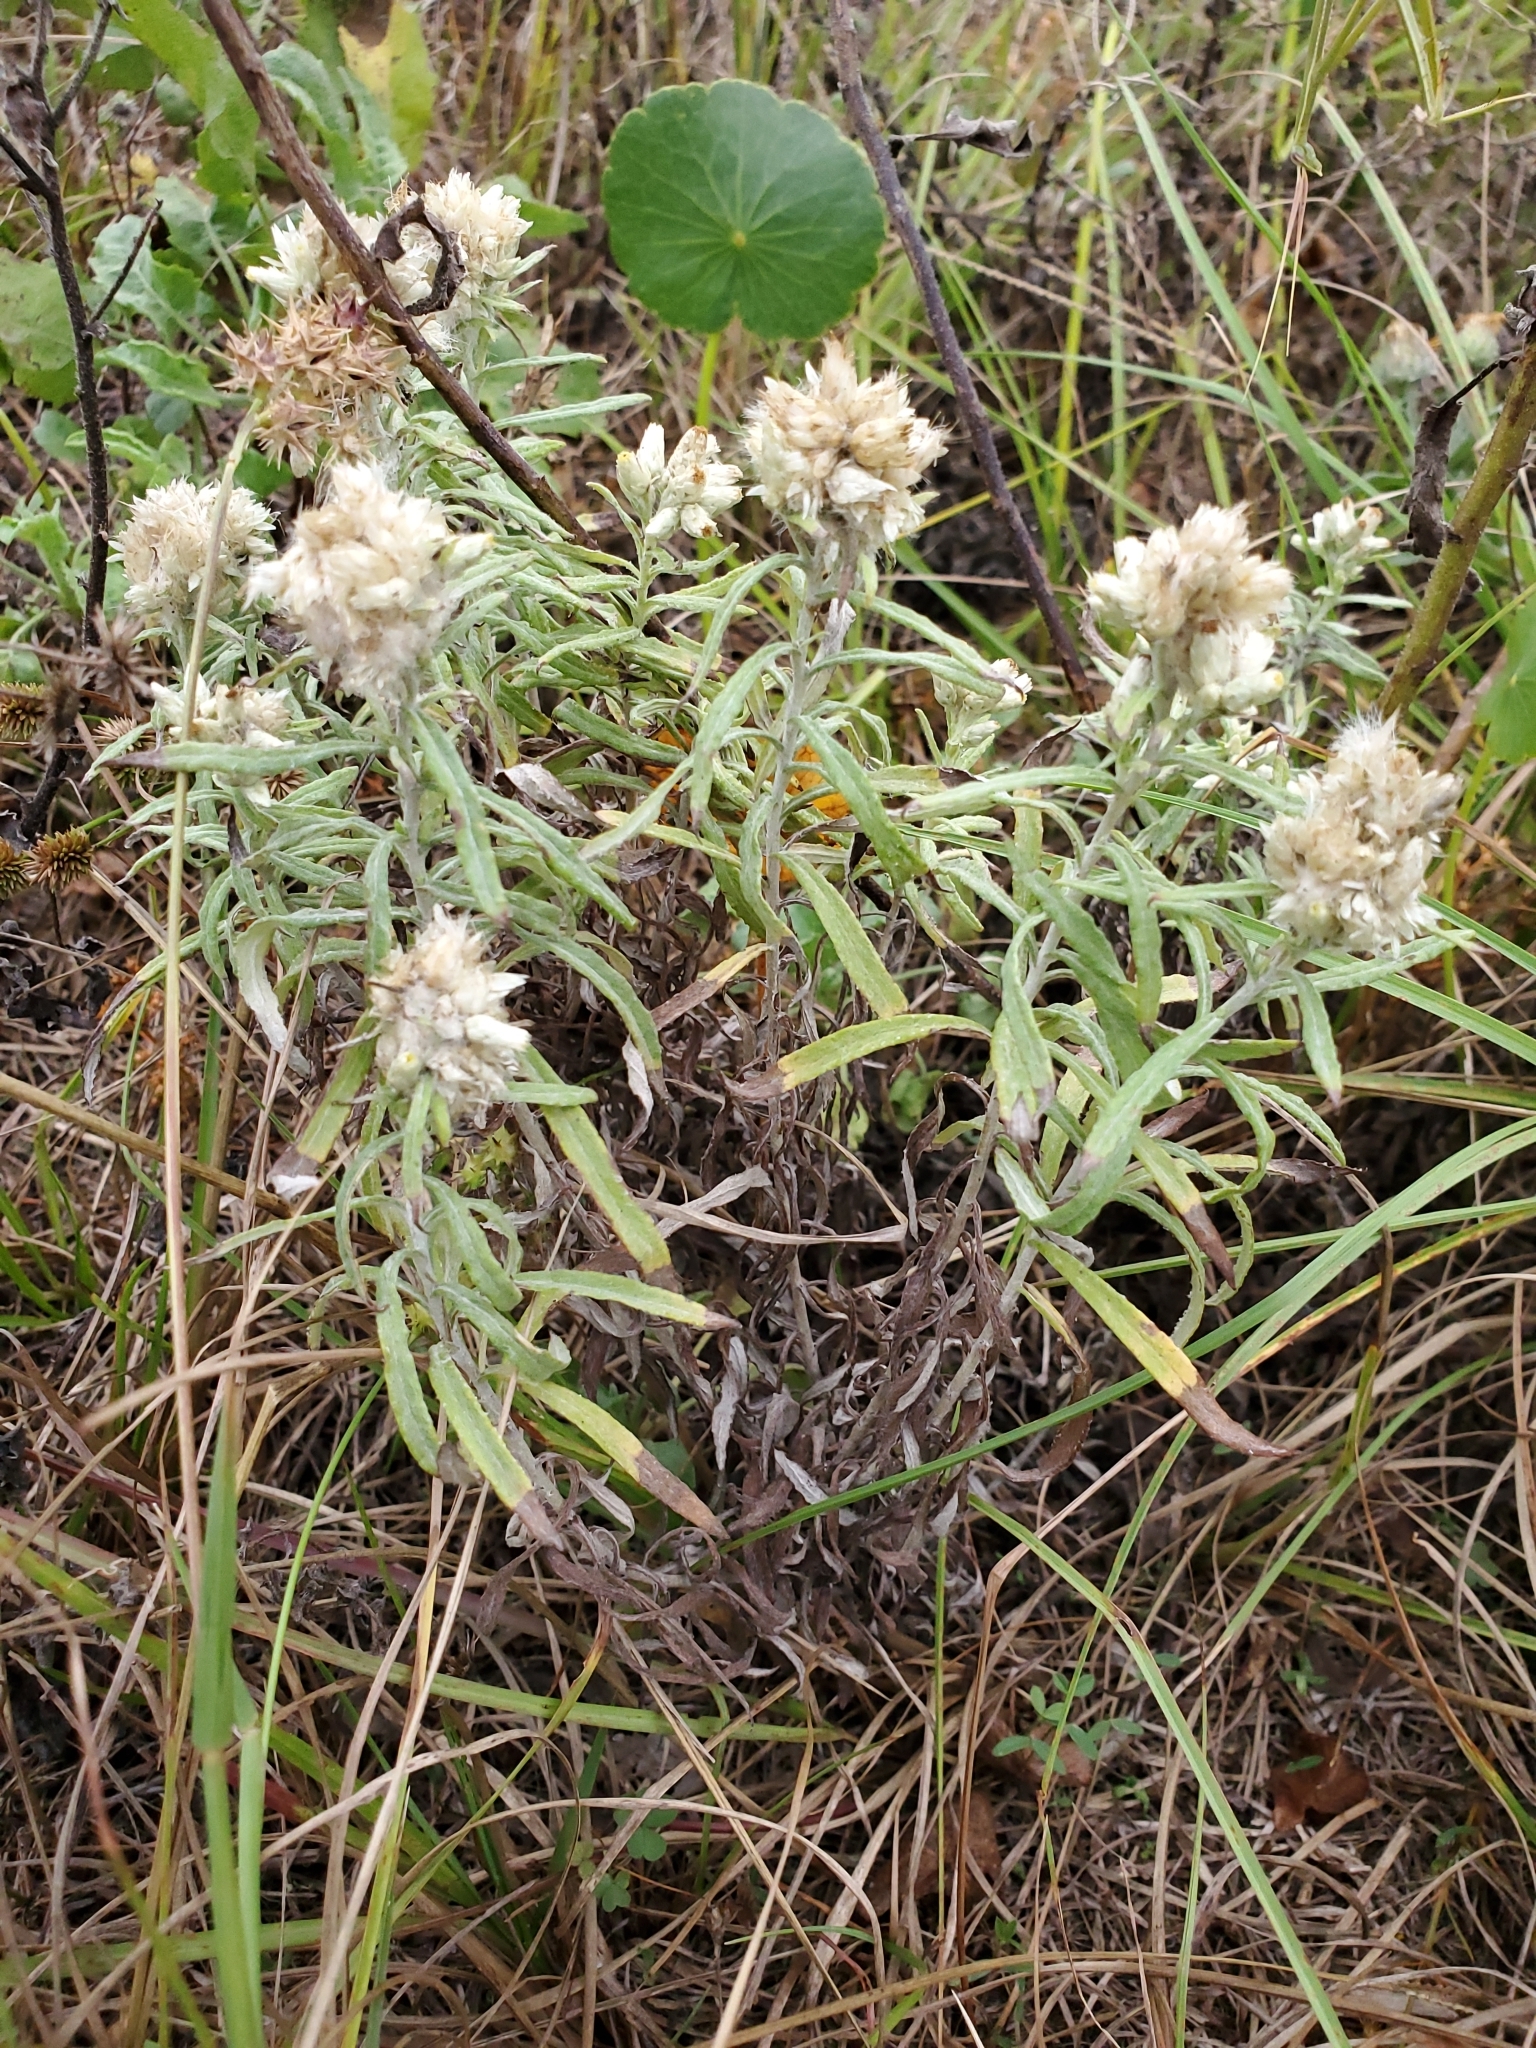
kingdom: Plantae
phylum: Tracheophyta
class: Magnoliopsida
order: Asterales
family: Asteraceae
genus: Pseudognaphalium
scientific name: Pseudognaphalium obtusifolium
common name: Eastern rabbit-tobacco
